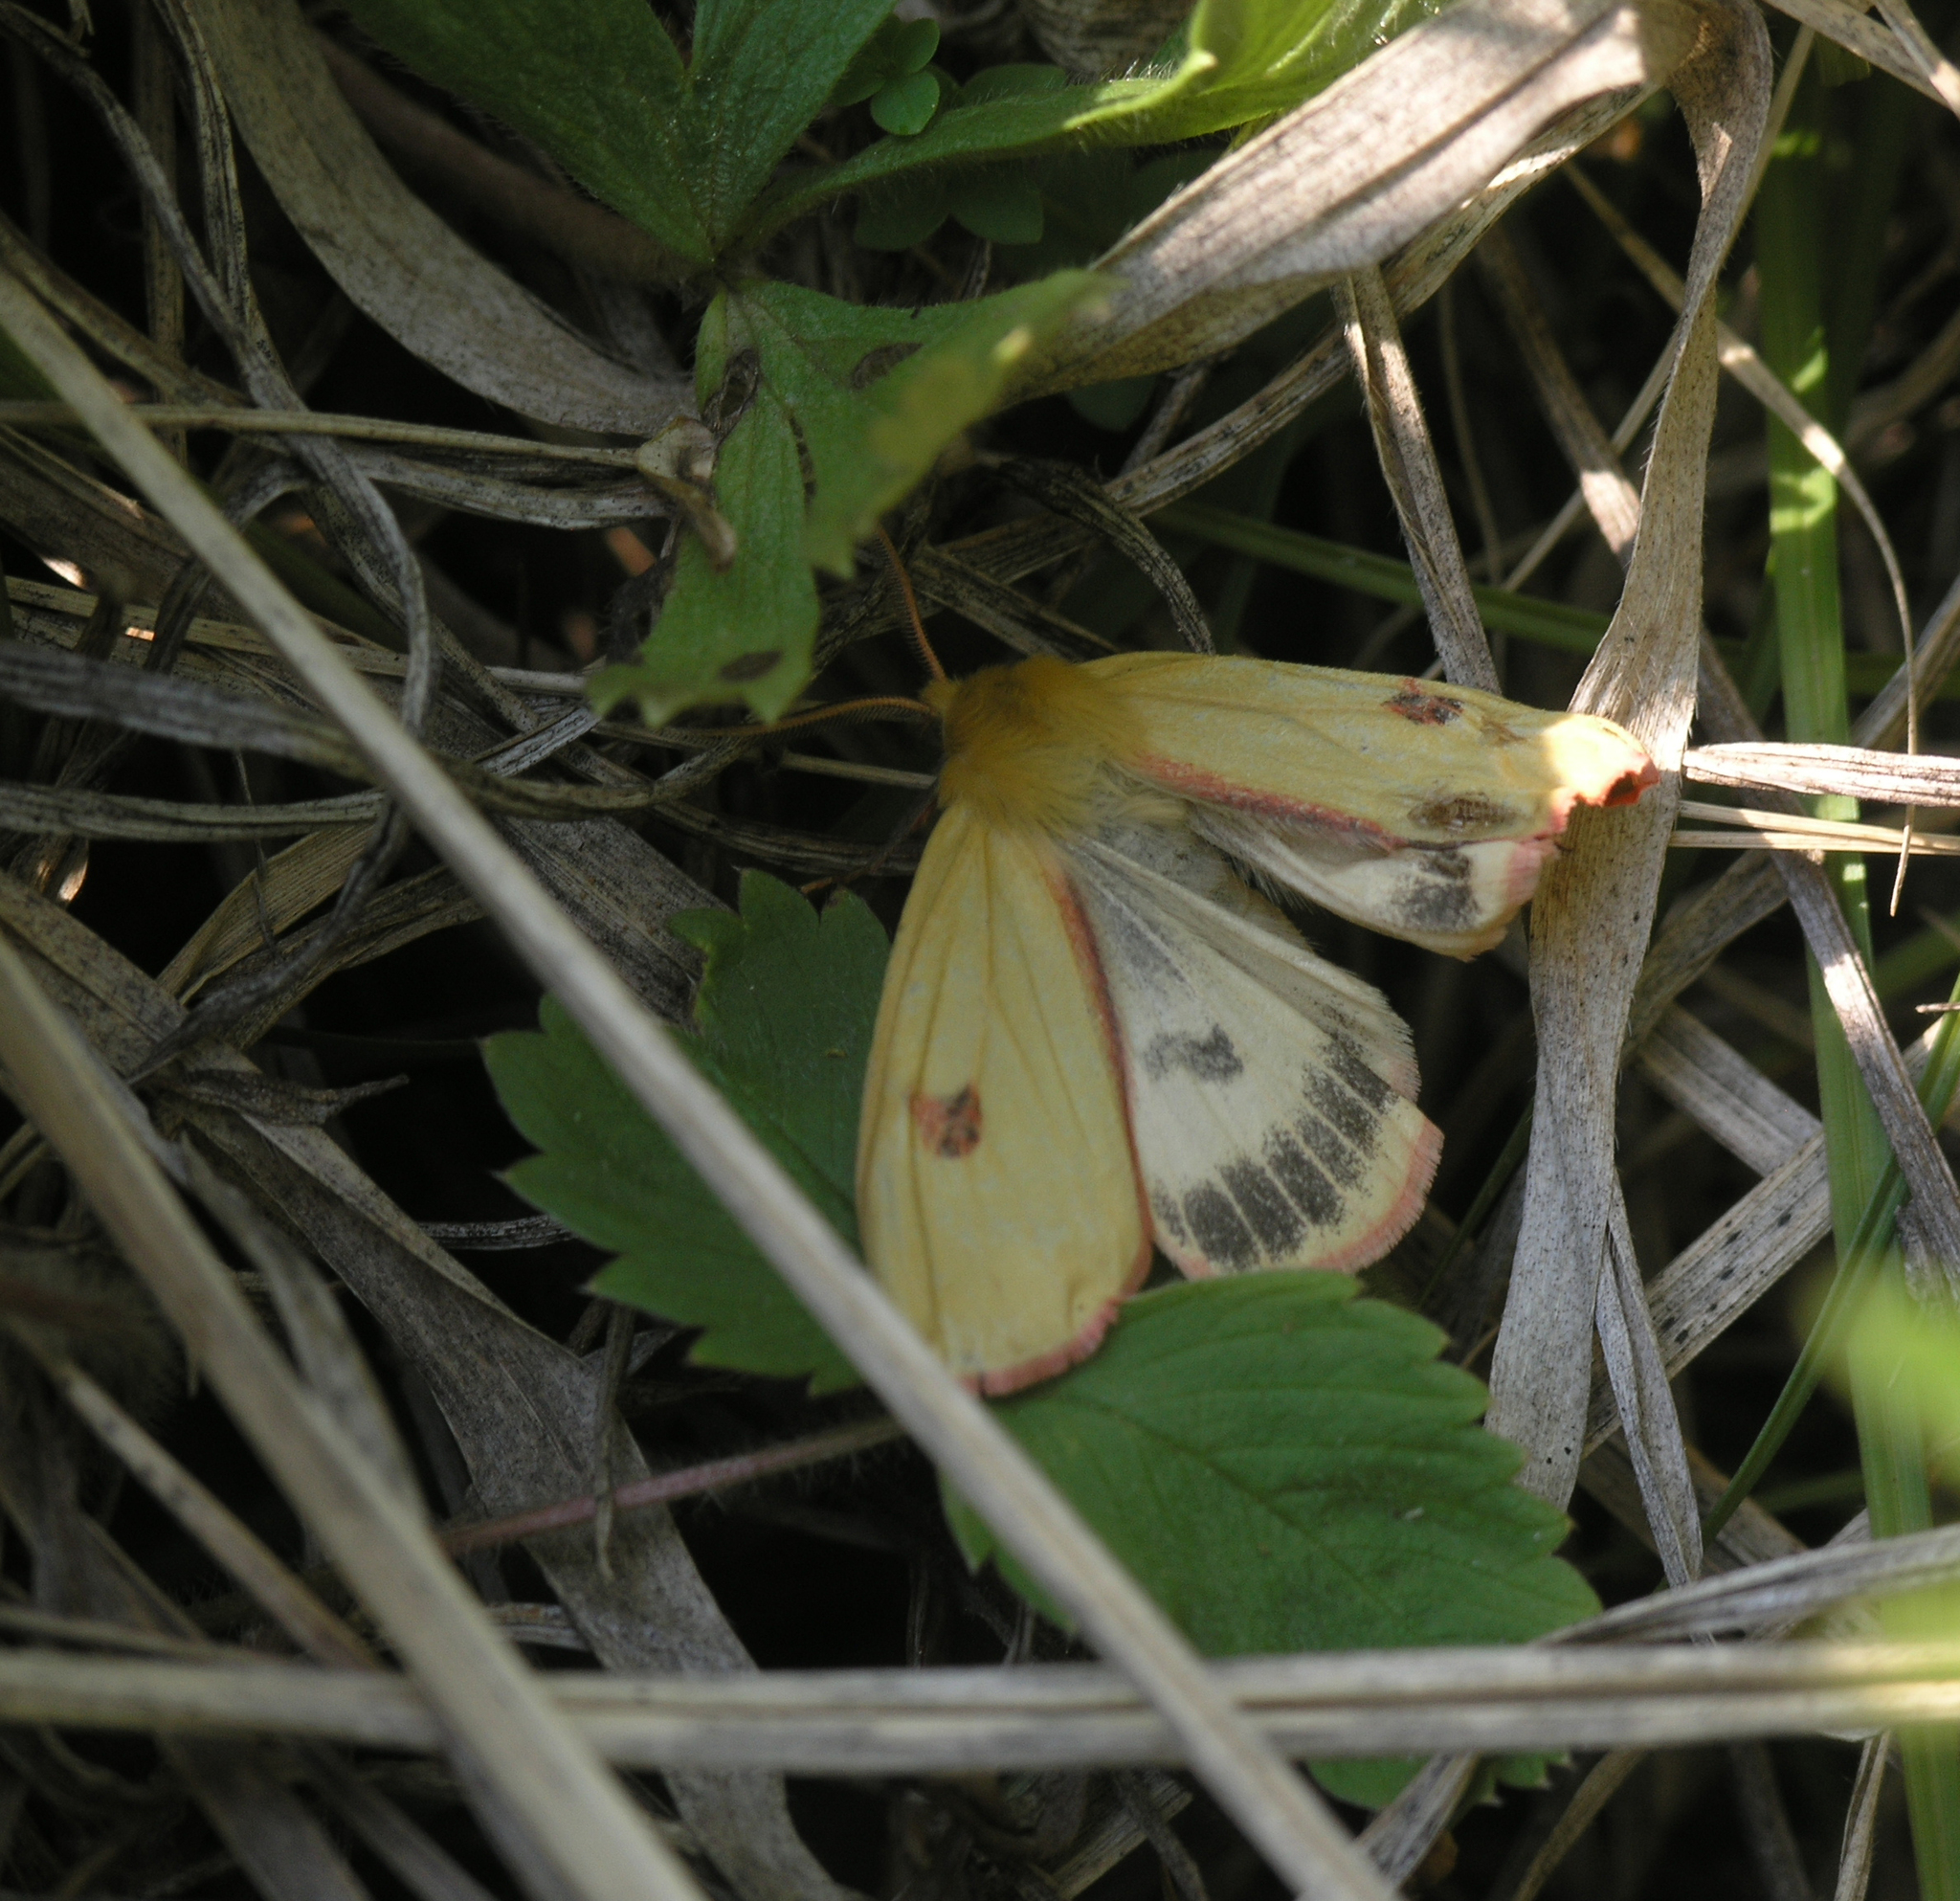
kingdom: Animalia
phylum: Arthropoda
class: Insecta
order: Lepidoptera
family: Erebidae
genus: Diacrisia
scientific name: Diacrisia sannio
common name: Clouded buff
